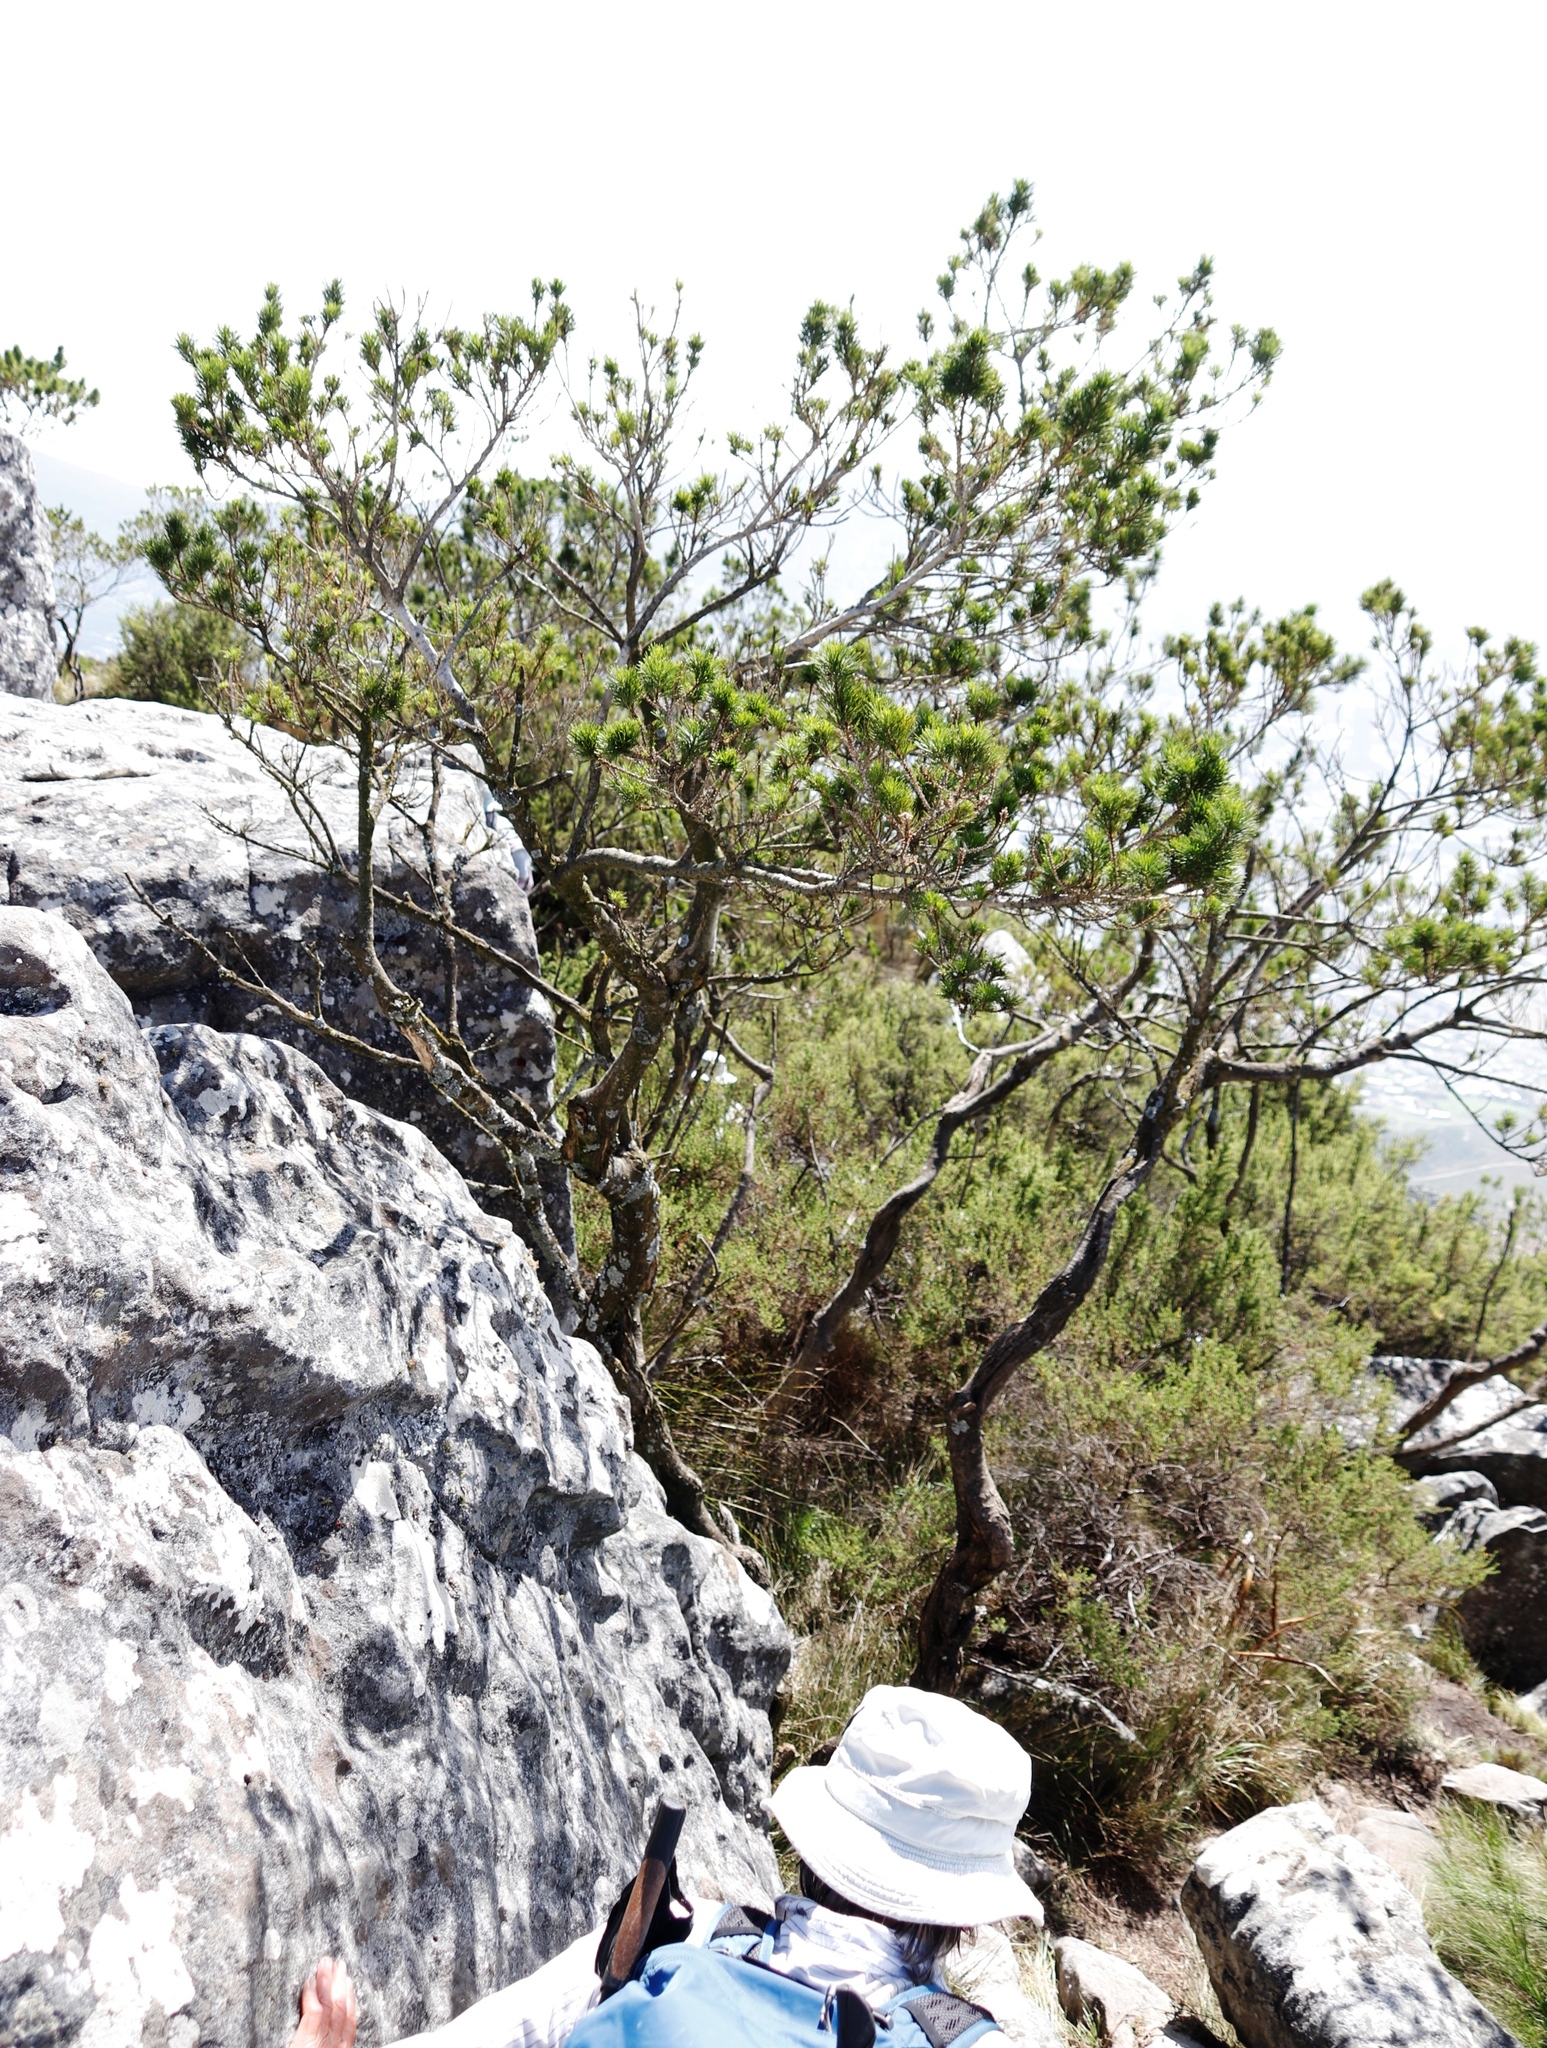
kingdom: Plantae
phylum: Tracheophyta
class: Magnoliopsida
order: Fabales
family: Fabaceae
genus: Psoralea
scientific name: Psoralea pinnata
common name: African scurfpea
